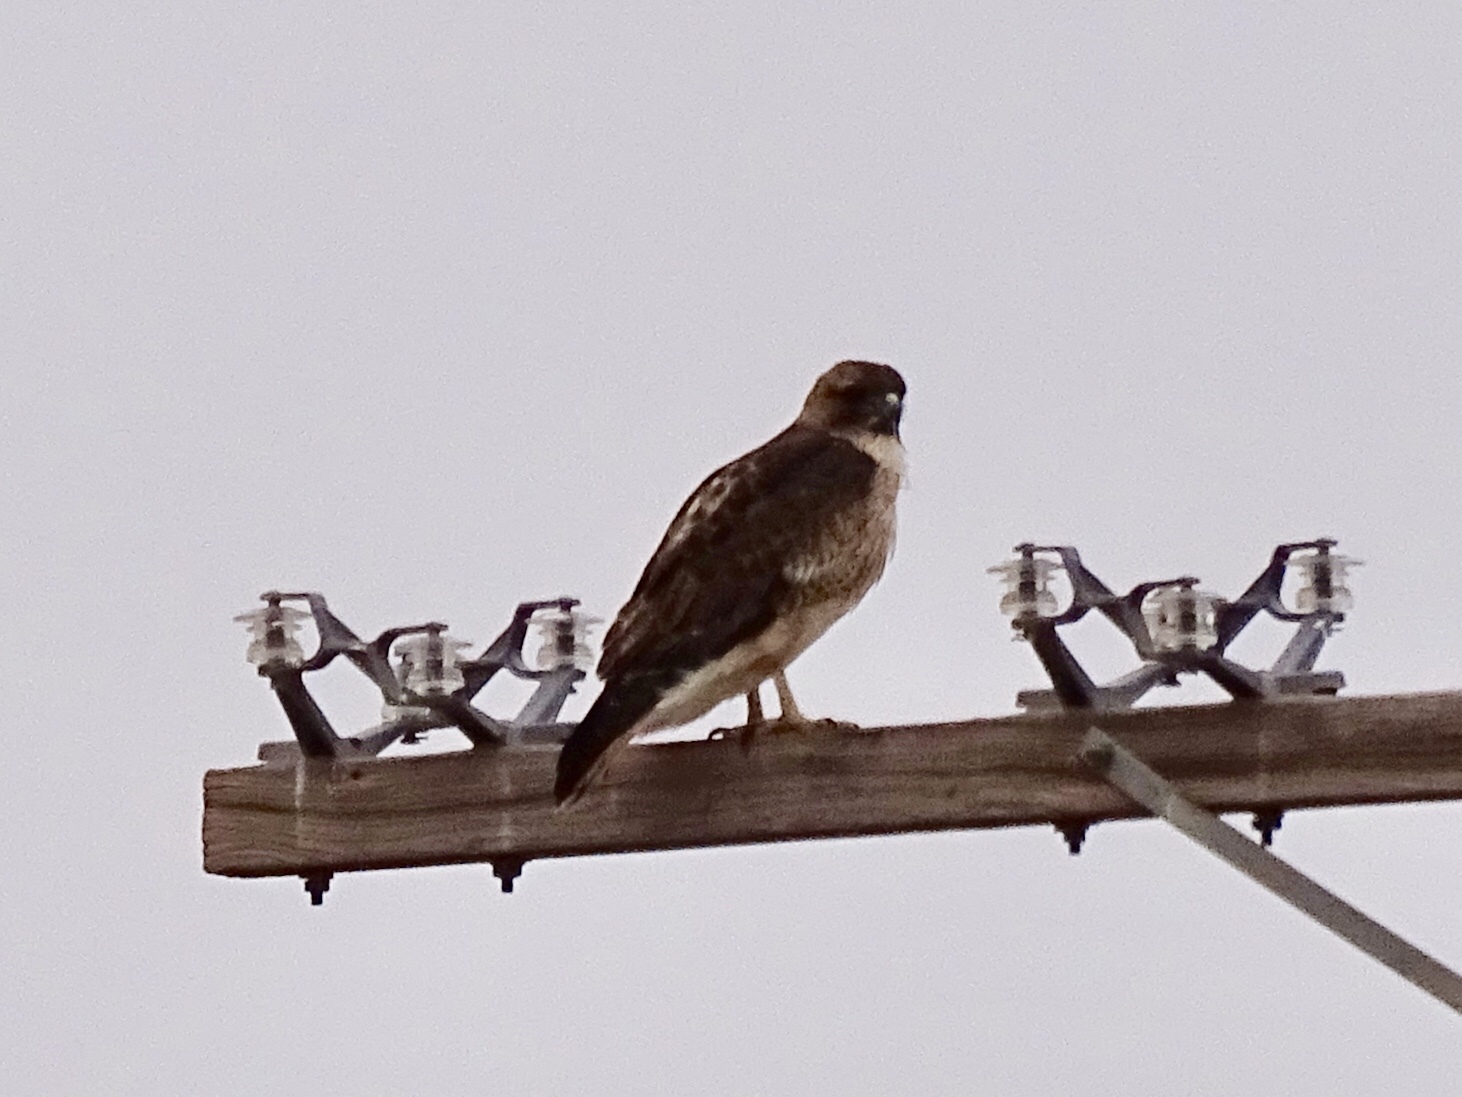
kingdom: Animalia
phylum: Chordata
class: Aves
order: Accipitriformes
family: Accipitridae
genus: Buteo
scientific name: Buteo jamaicensis
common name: Red-tailed hawk
